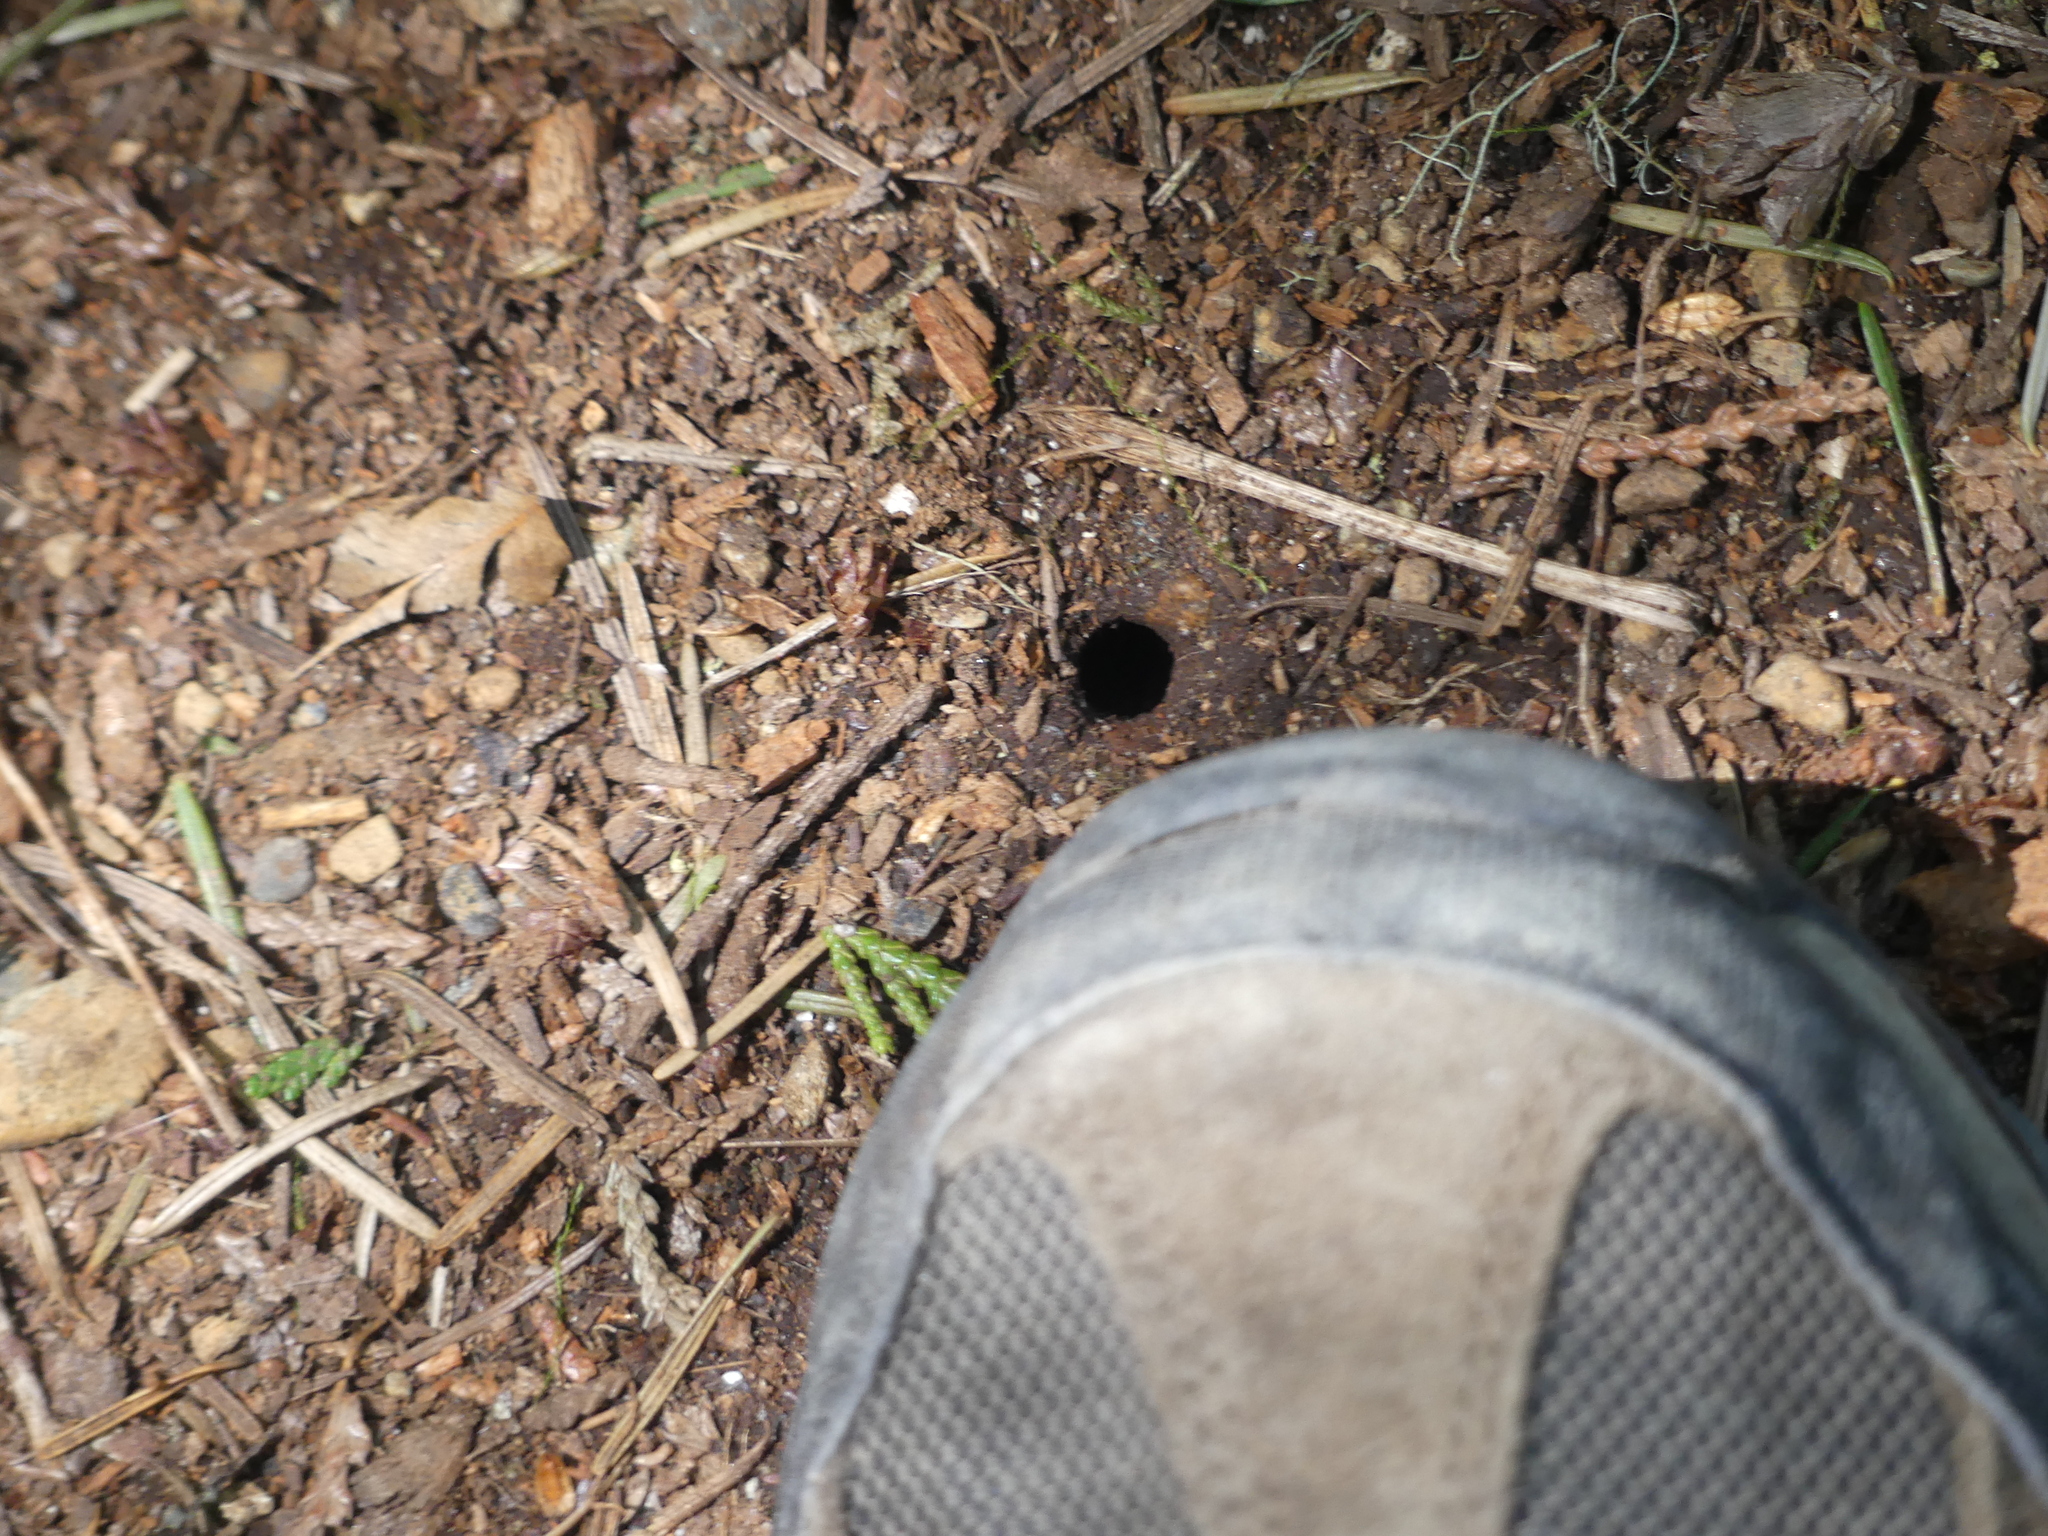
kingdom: Animalia
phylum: Arthropoda
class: Arachnida
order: Araneae
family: Antrodiaetidae
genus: Antrodiaetus
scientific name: Antrodiaetus pacificus
